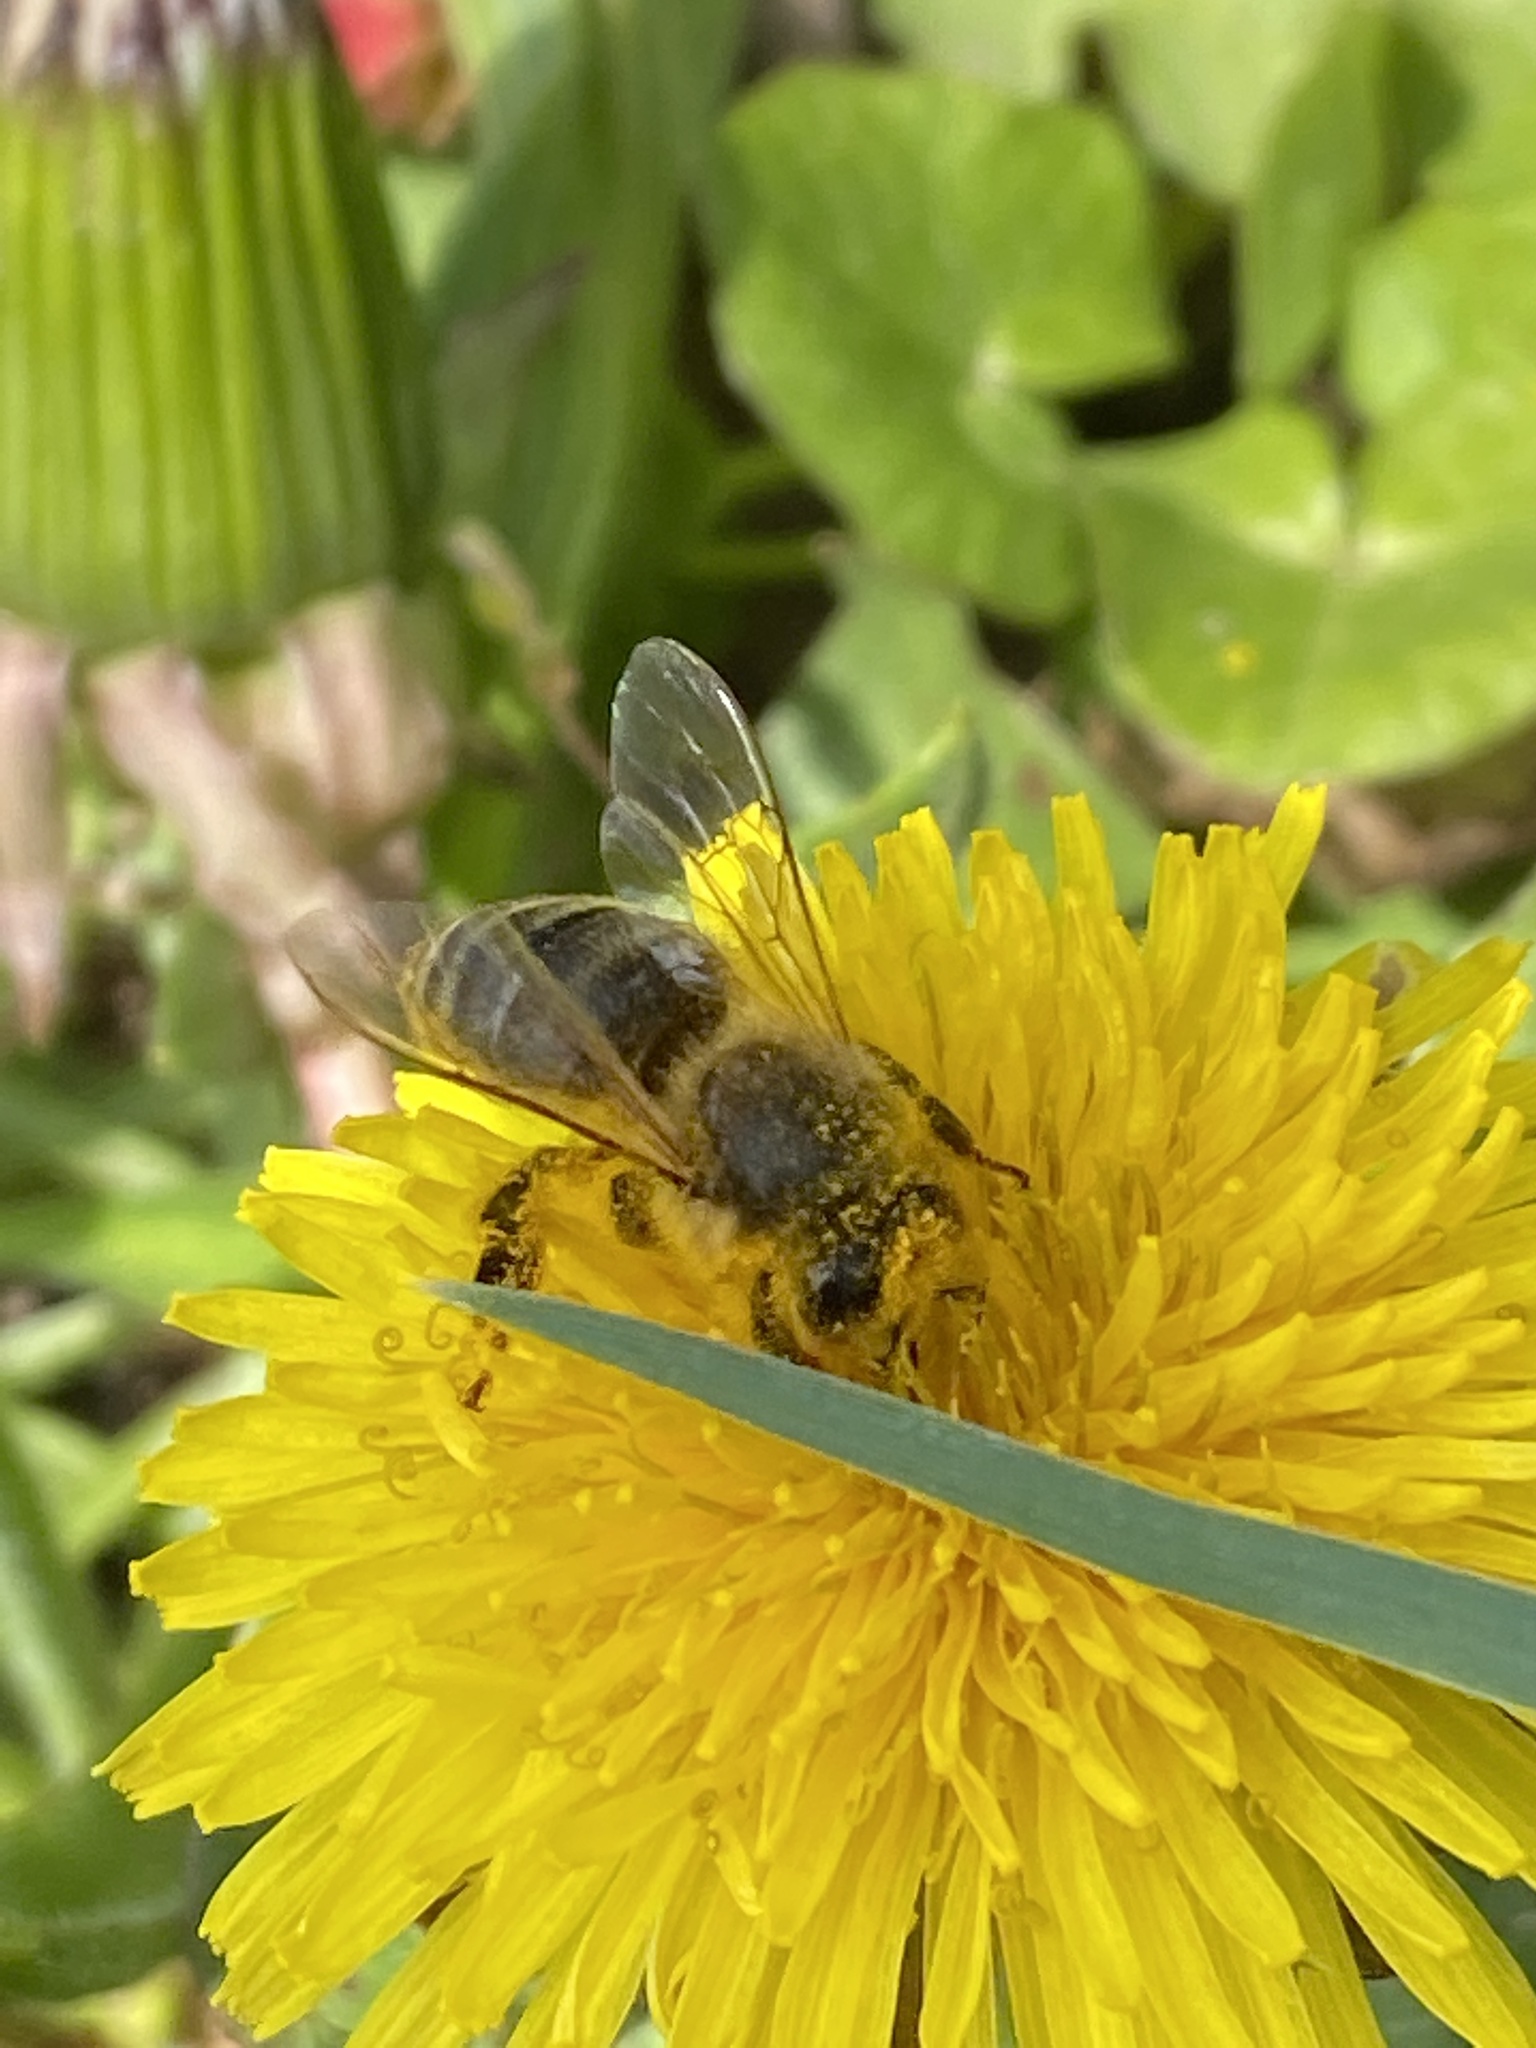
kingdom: Animalia
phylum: Arthropoda
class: Insecta
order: Hymenoptera
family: Apidae
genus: Apis
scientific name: Apis mellifera
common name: Honey bee
